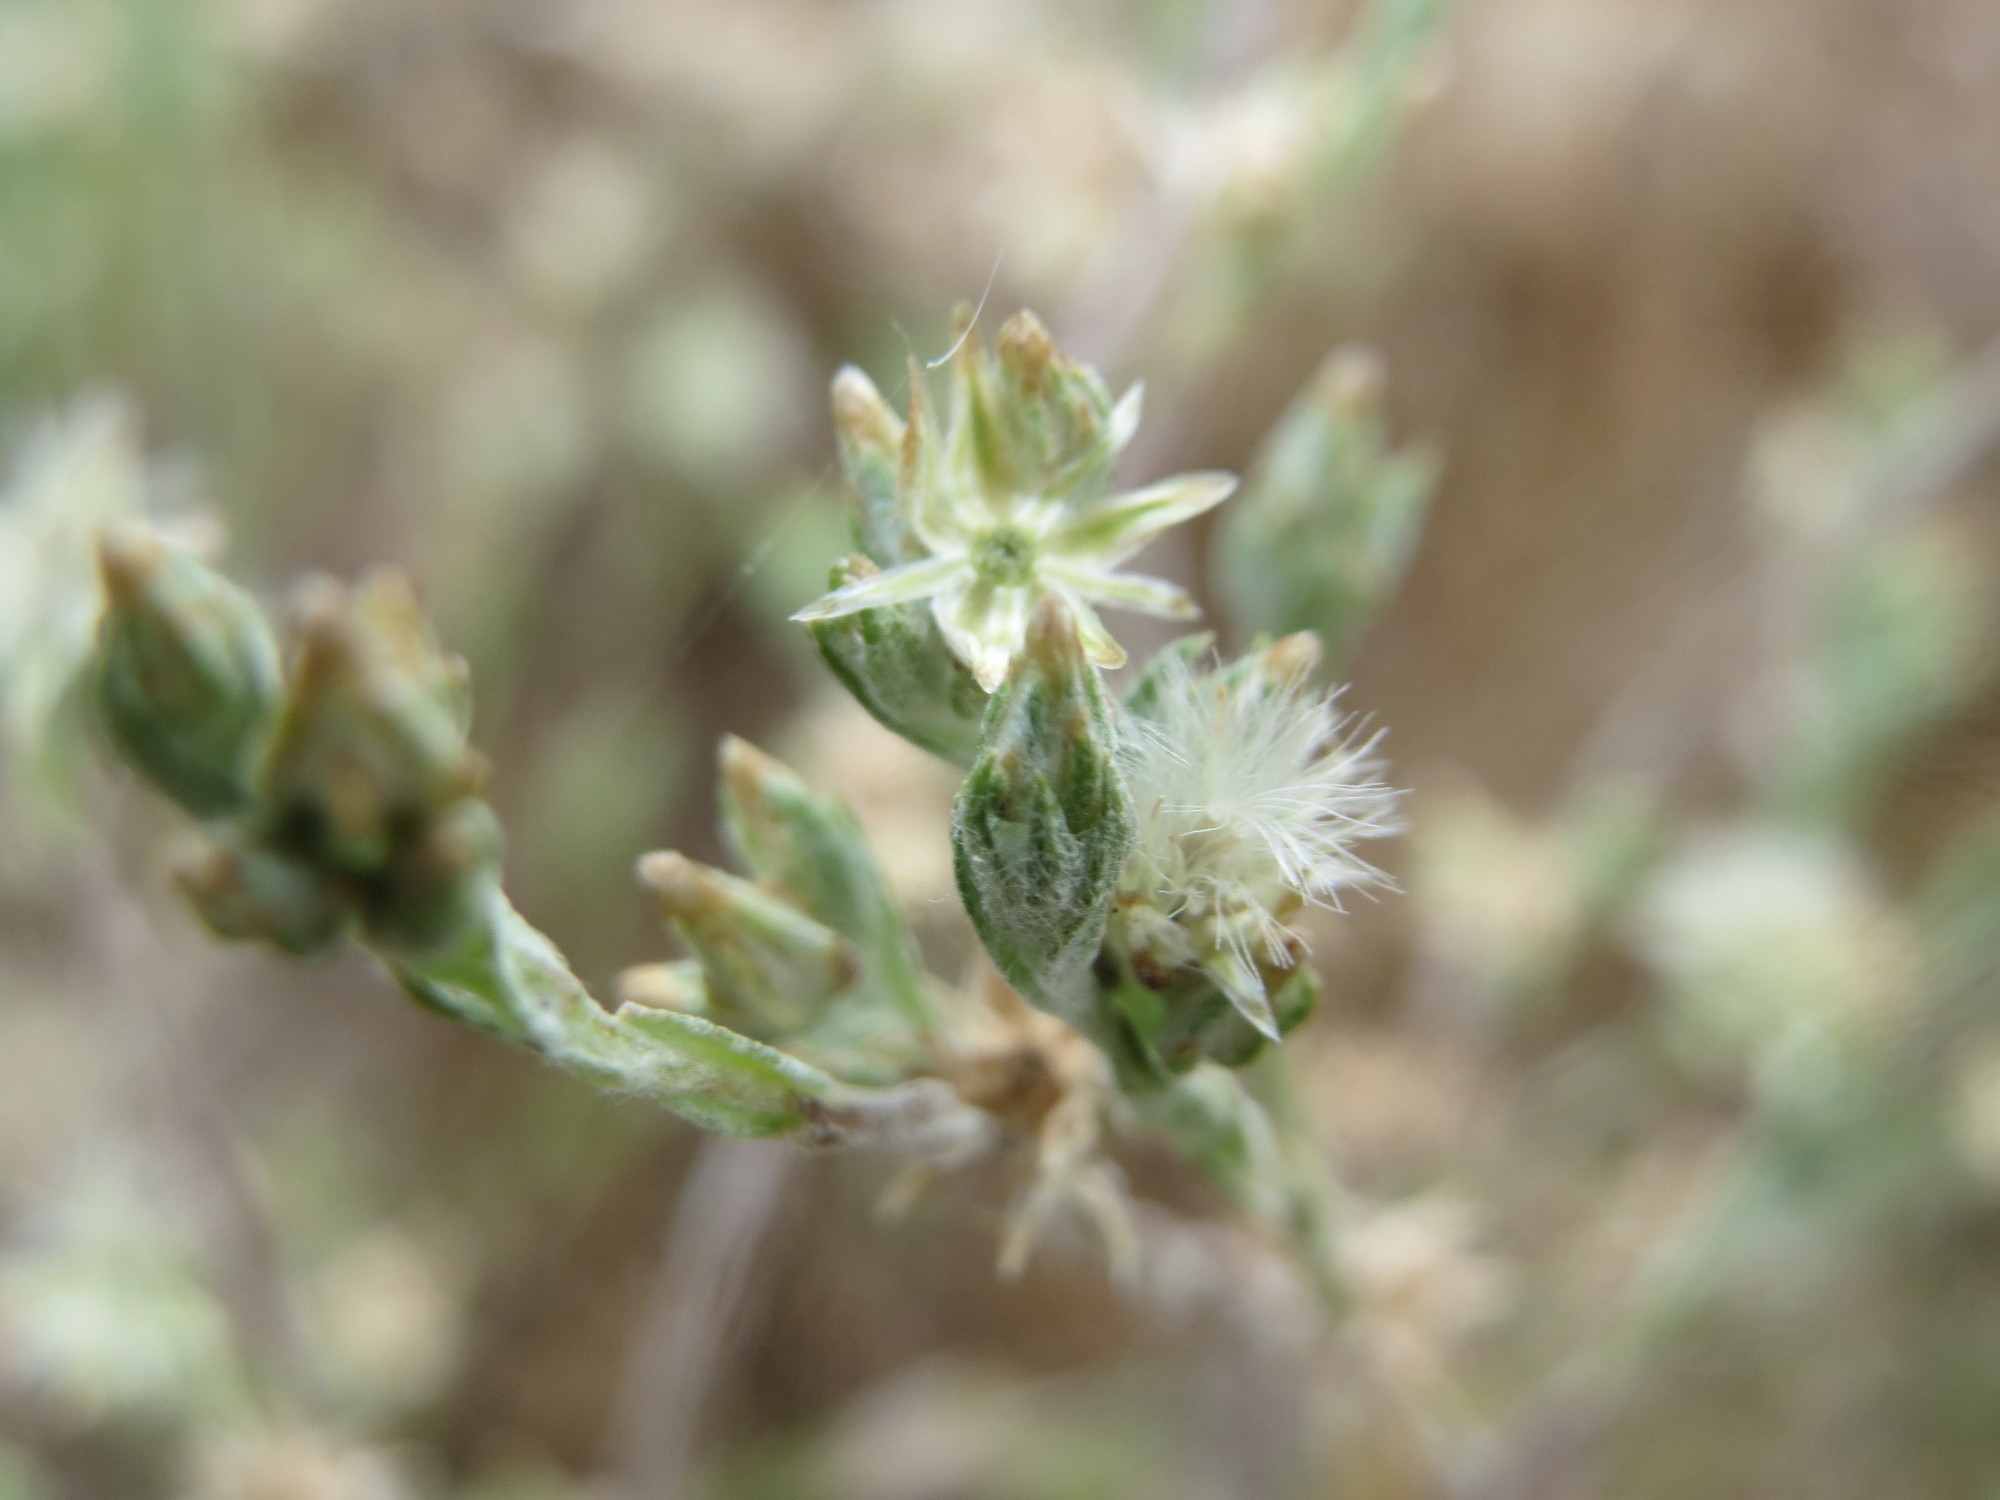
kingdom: Plantae
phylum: Tracheophyta
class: Magnoliopsida
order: Asterales
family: Asteraceae
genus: Filago
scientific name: Filago arvensis
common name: Field cudweed
